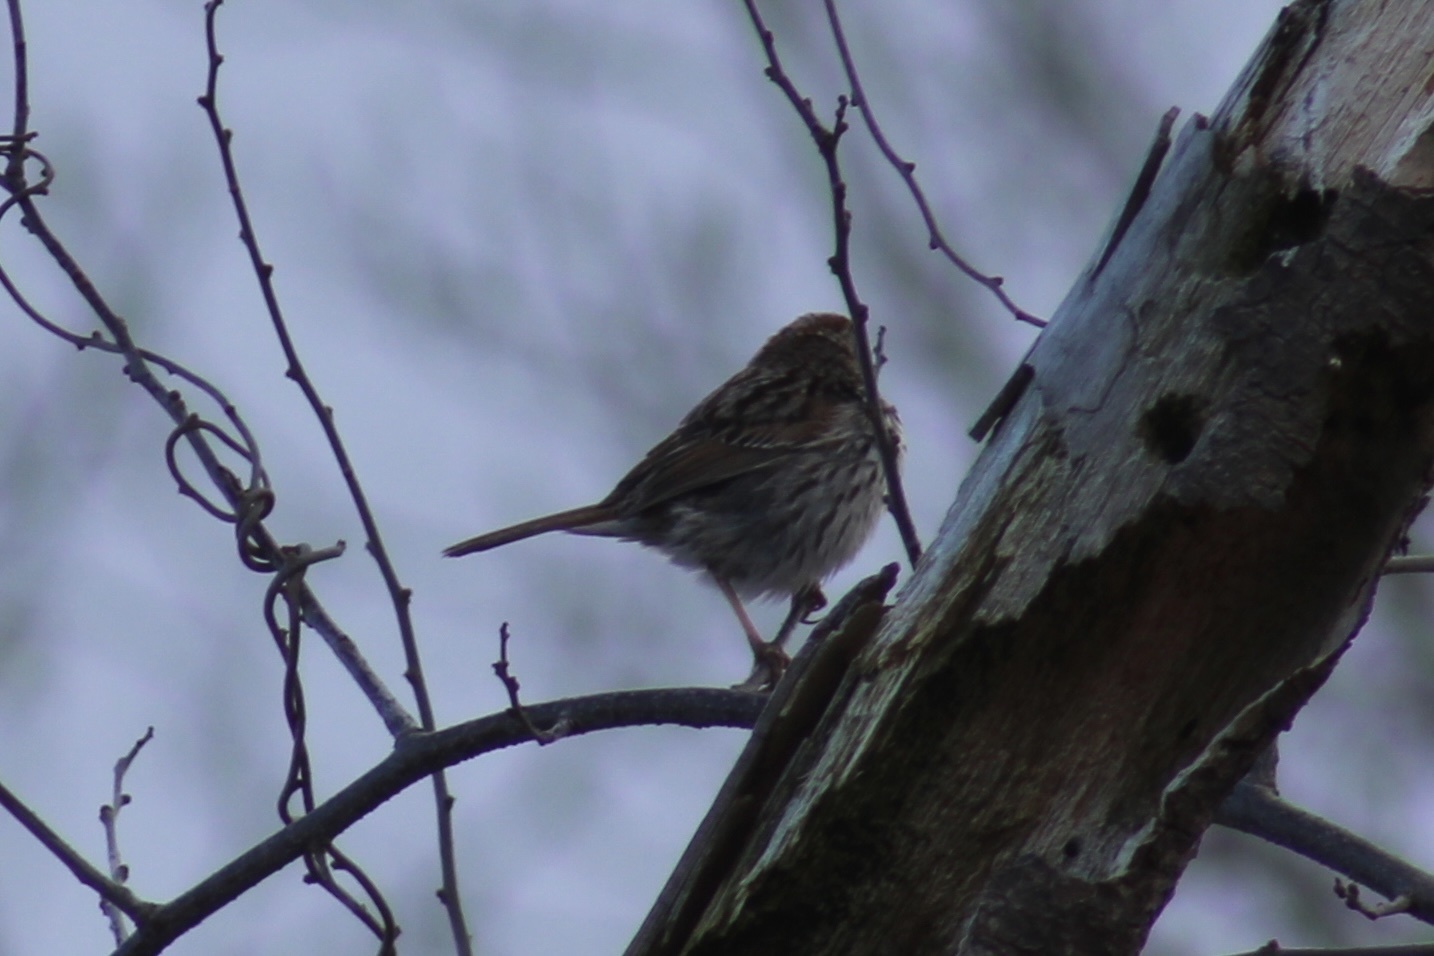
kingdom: Animalia
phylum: Chordata
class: Aves
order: Passeriformes
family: Passerellidae
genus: Melospiza
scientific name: Melospiza melodia
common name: Song sparrow
